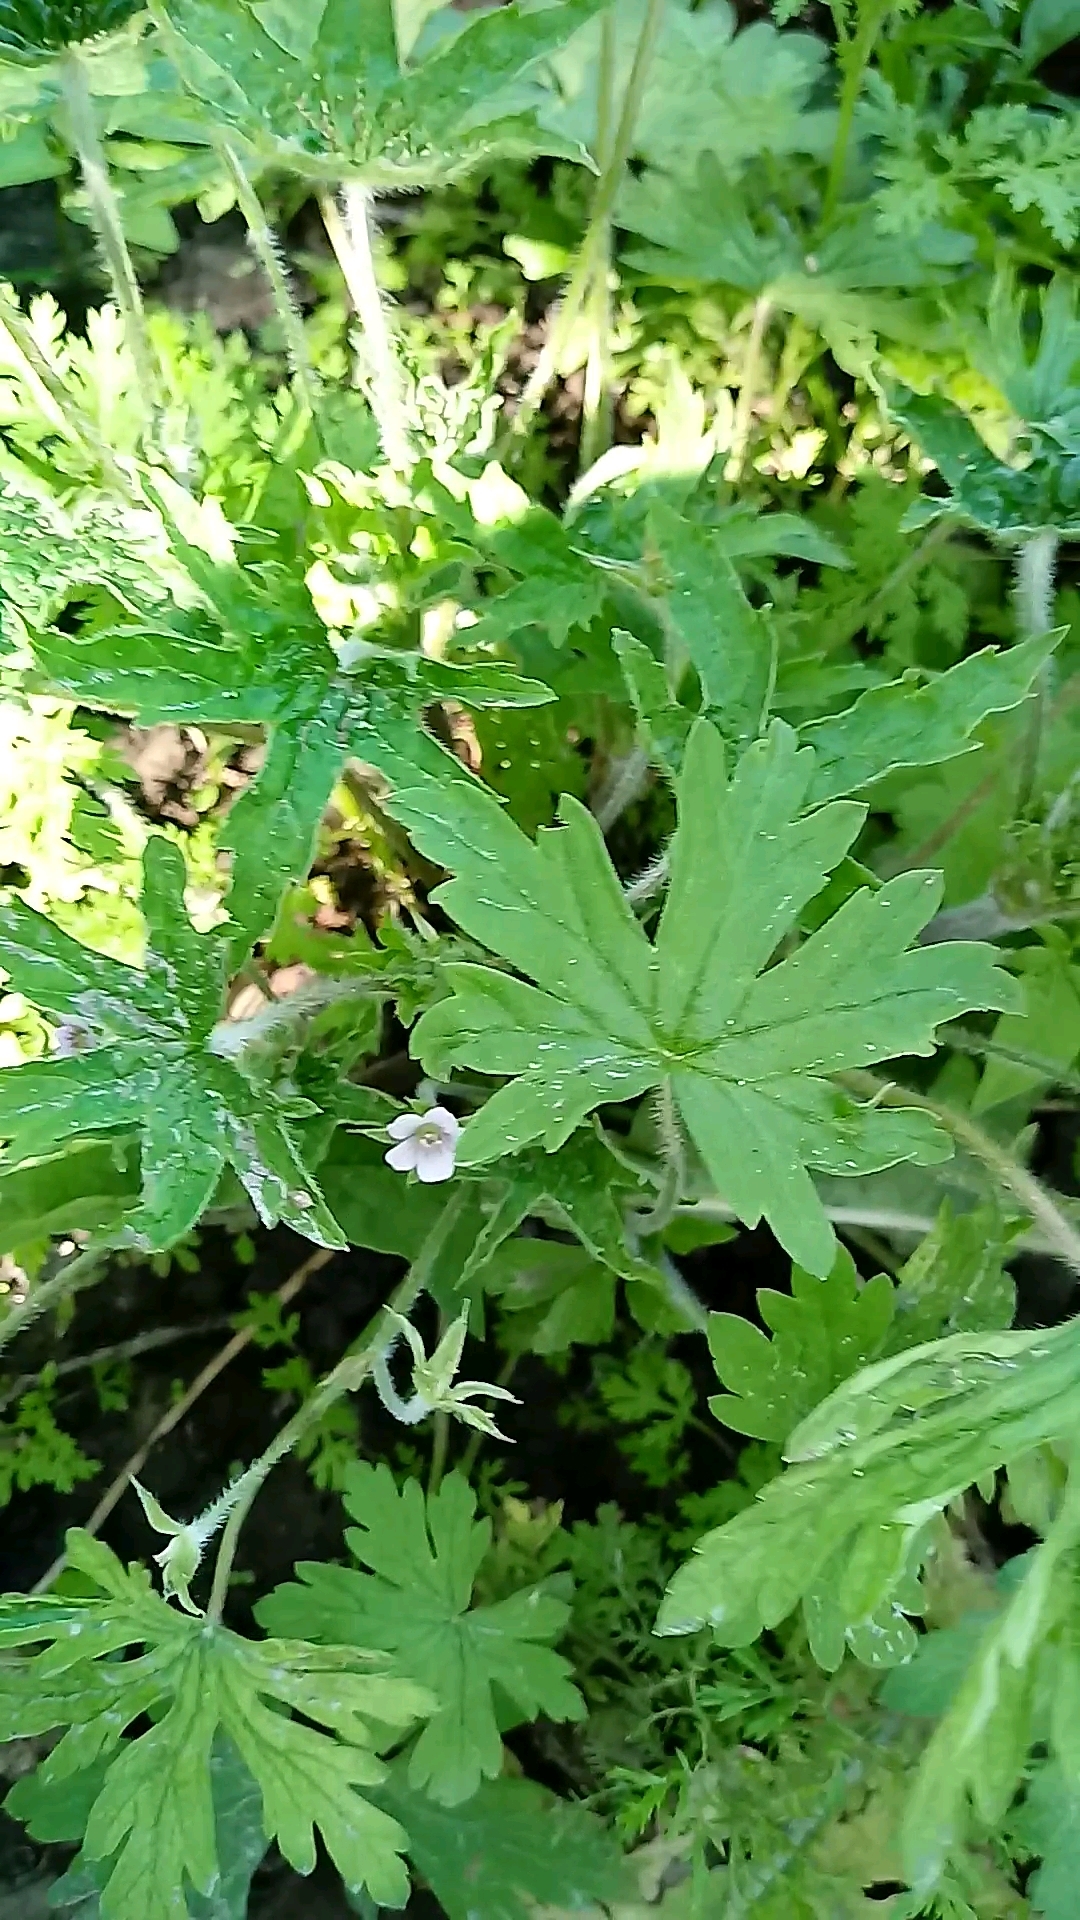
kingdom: Plantae
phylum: Tracheophyta
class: Magnoliopsida
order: Geraniales
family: Geraniaceae
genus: Geranium
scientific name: Geranium sibiricum
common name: Siberian crane's-bill
